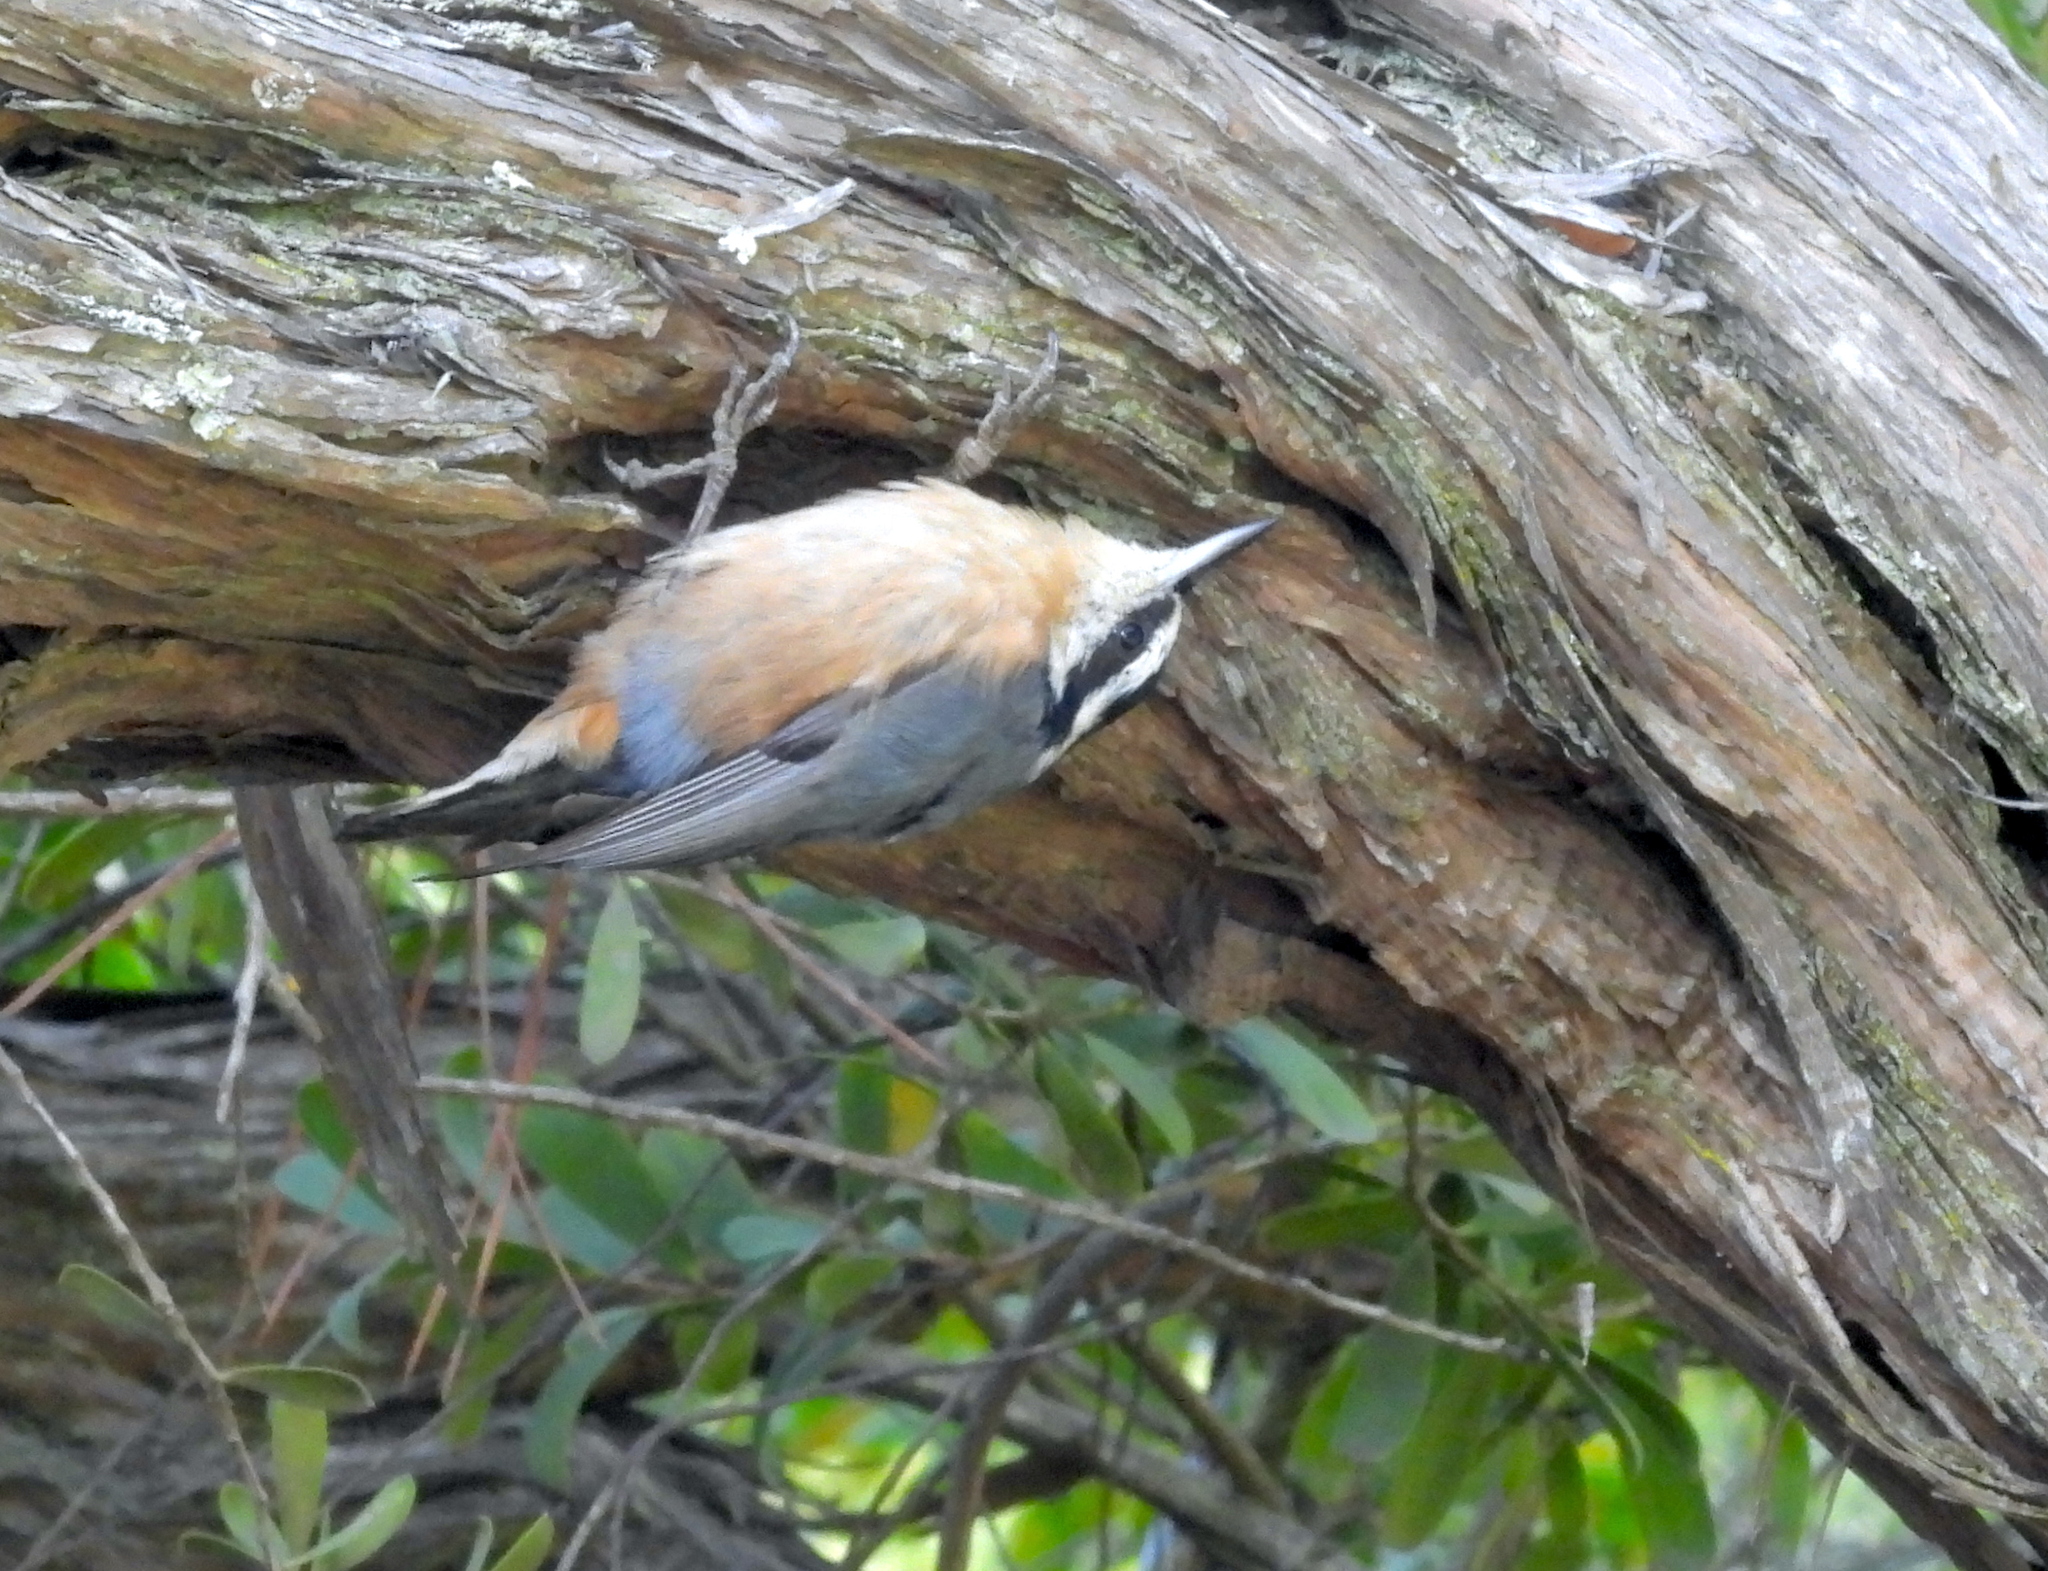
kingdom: Animalia
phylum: Chordata
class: Aves
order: Passeriformes
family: Sittidae
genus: Sitta
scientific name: Sitta canadensis
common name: Red-breasted nuthatch
